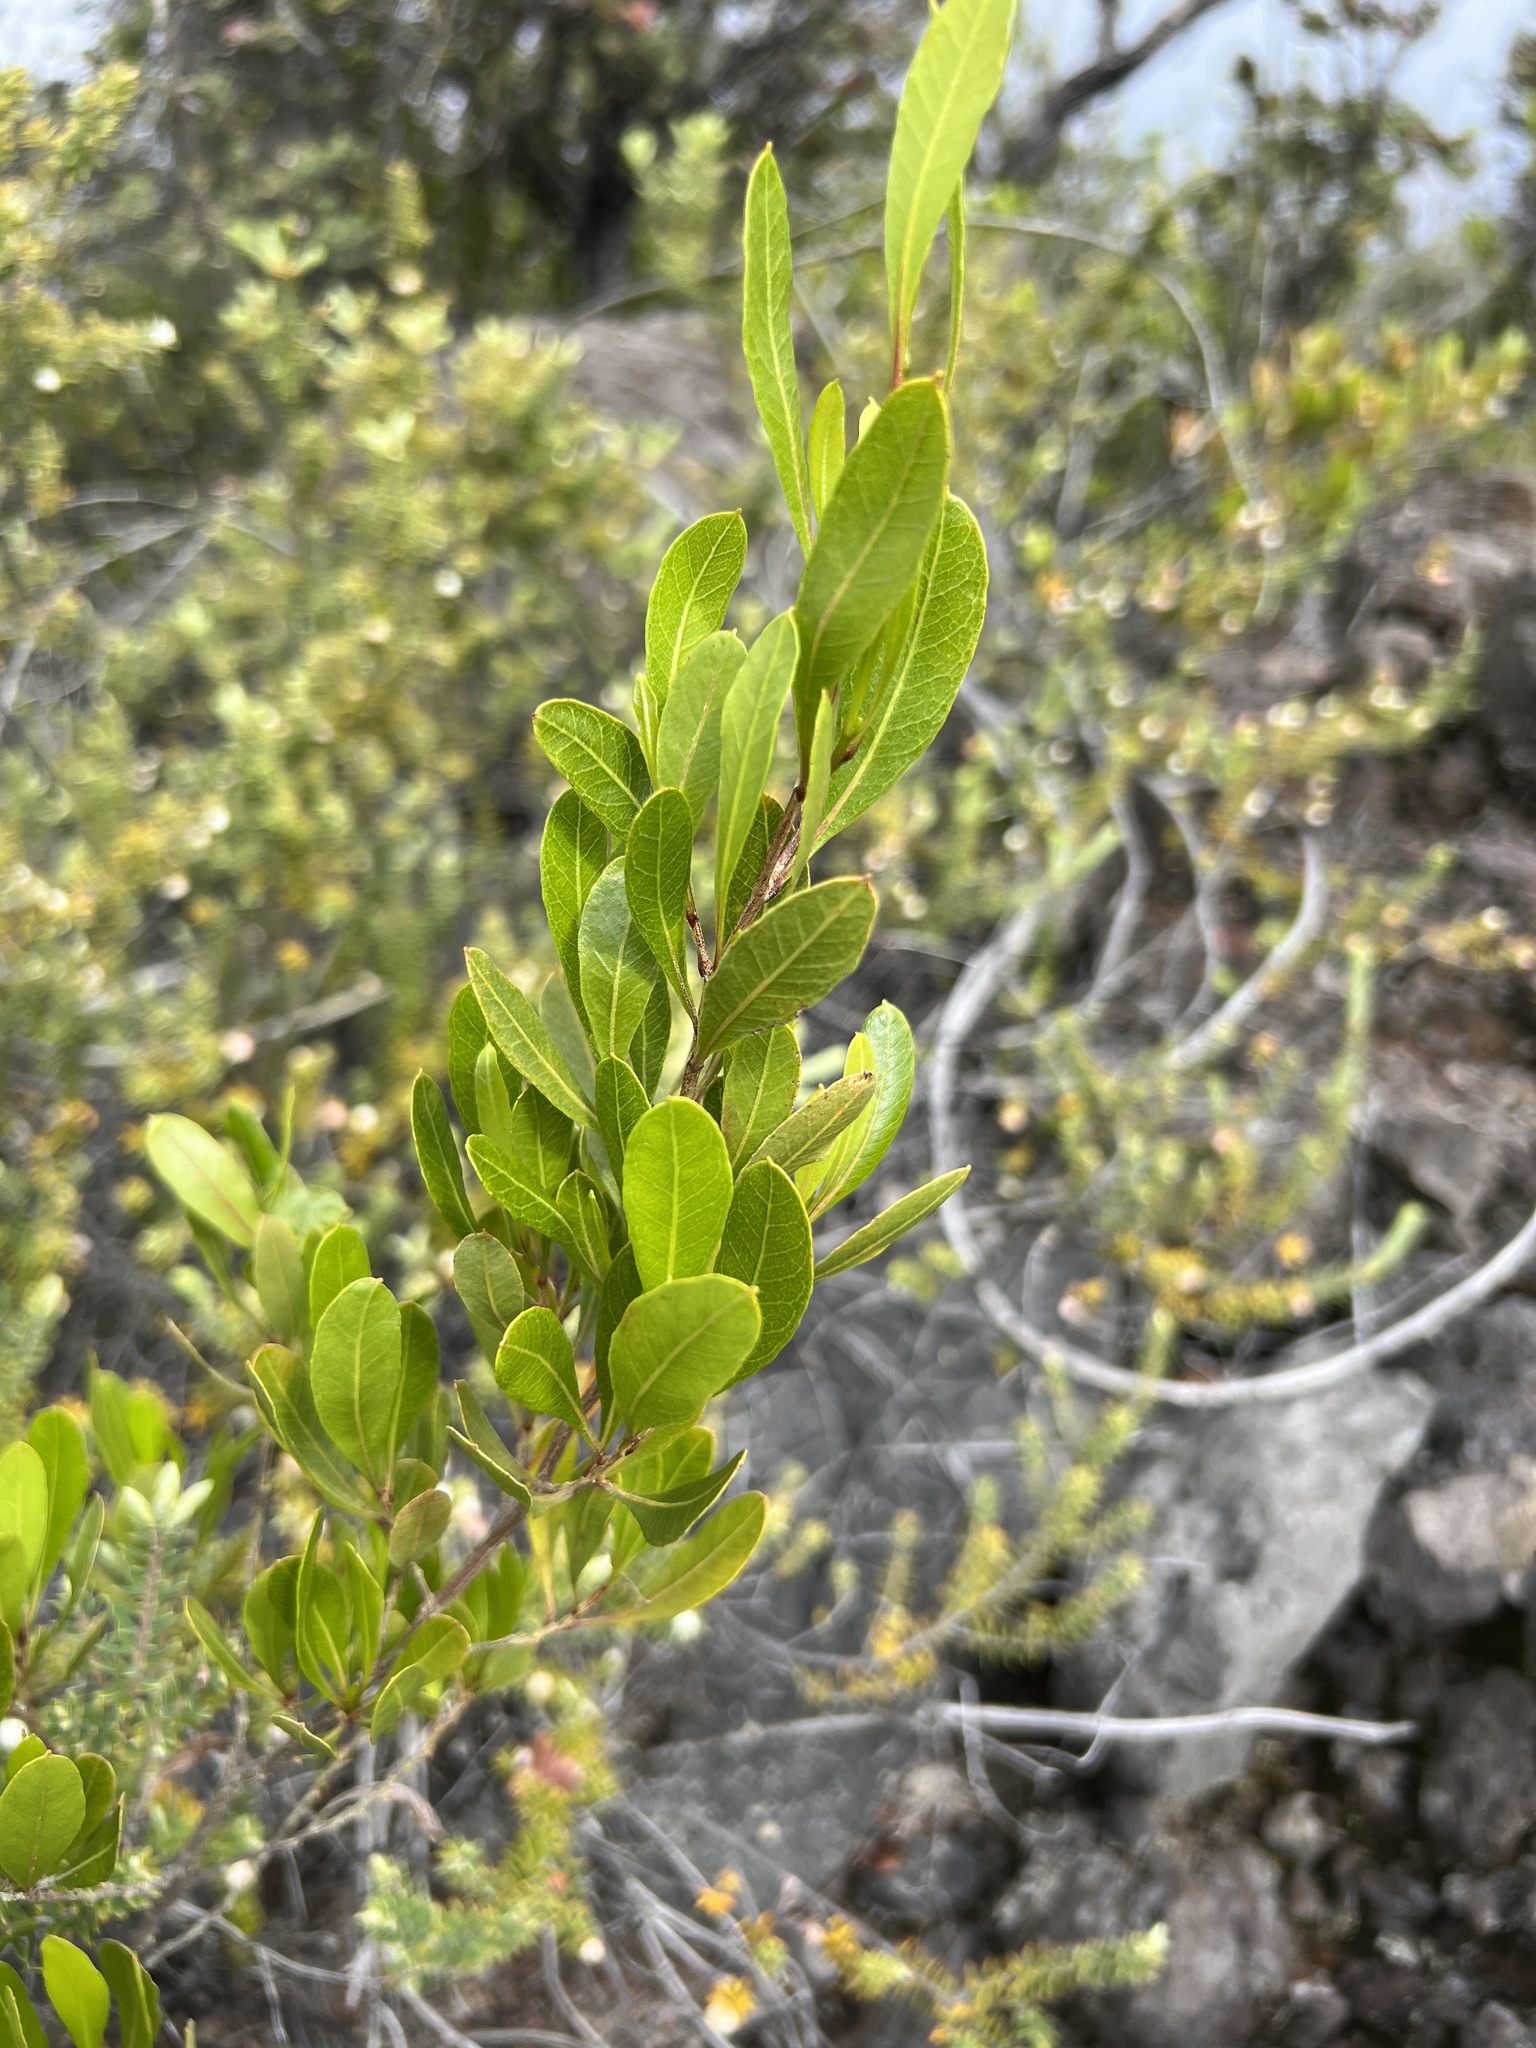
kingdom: Plantae
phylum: Tracheophyta
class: Magnoliopsida
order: Sapindales
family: Sapindaceae
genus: Dodonaea
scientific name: Dodonaea viscosa
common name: Hopbush
